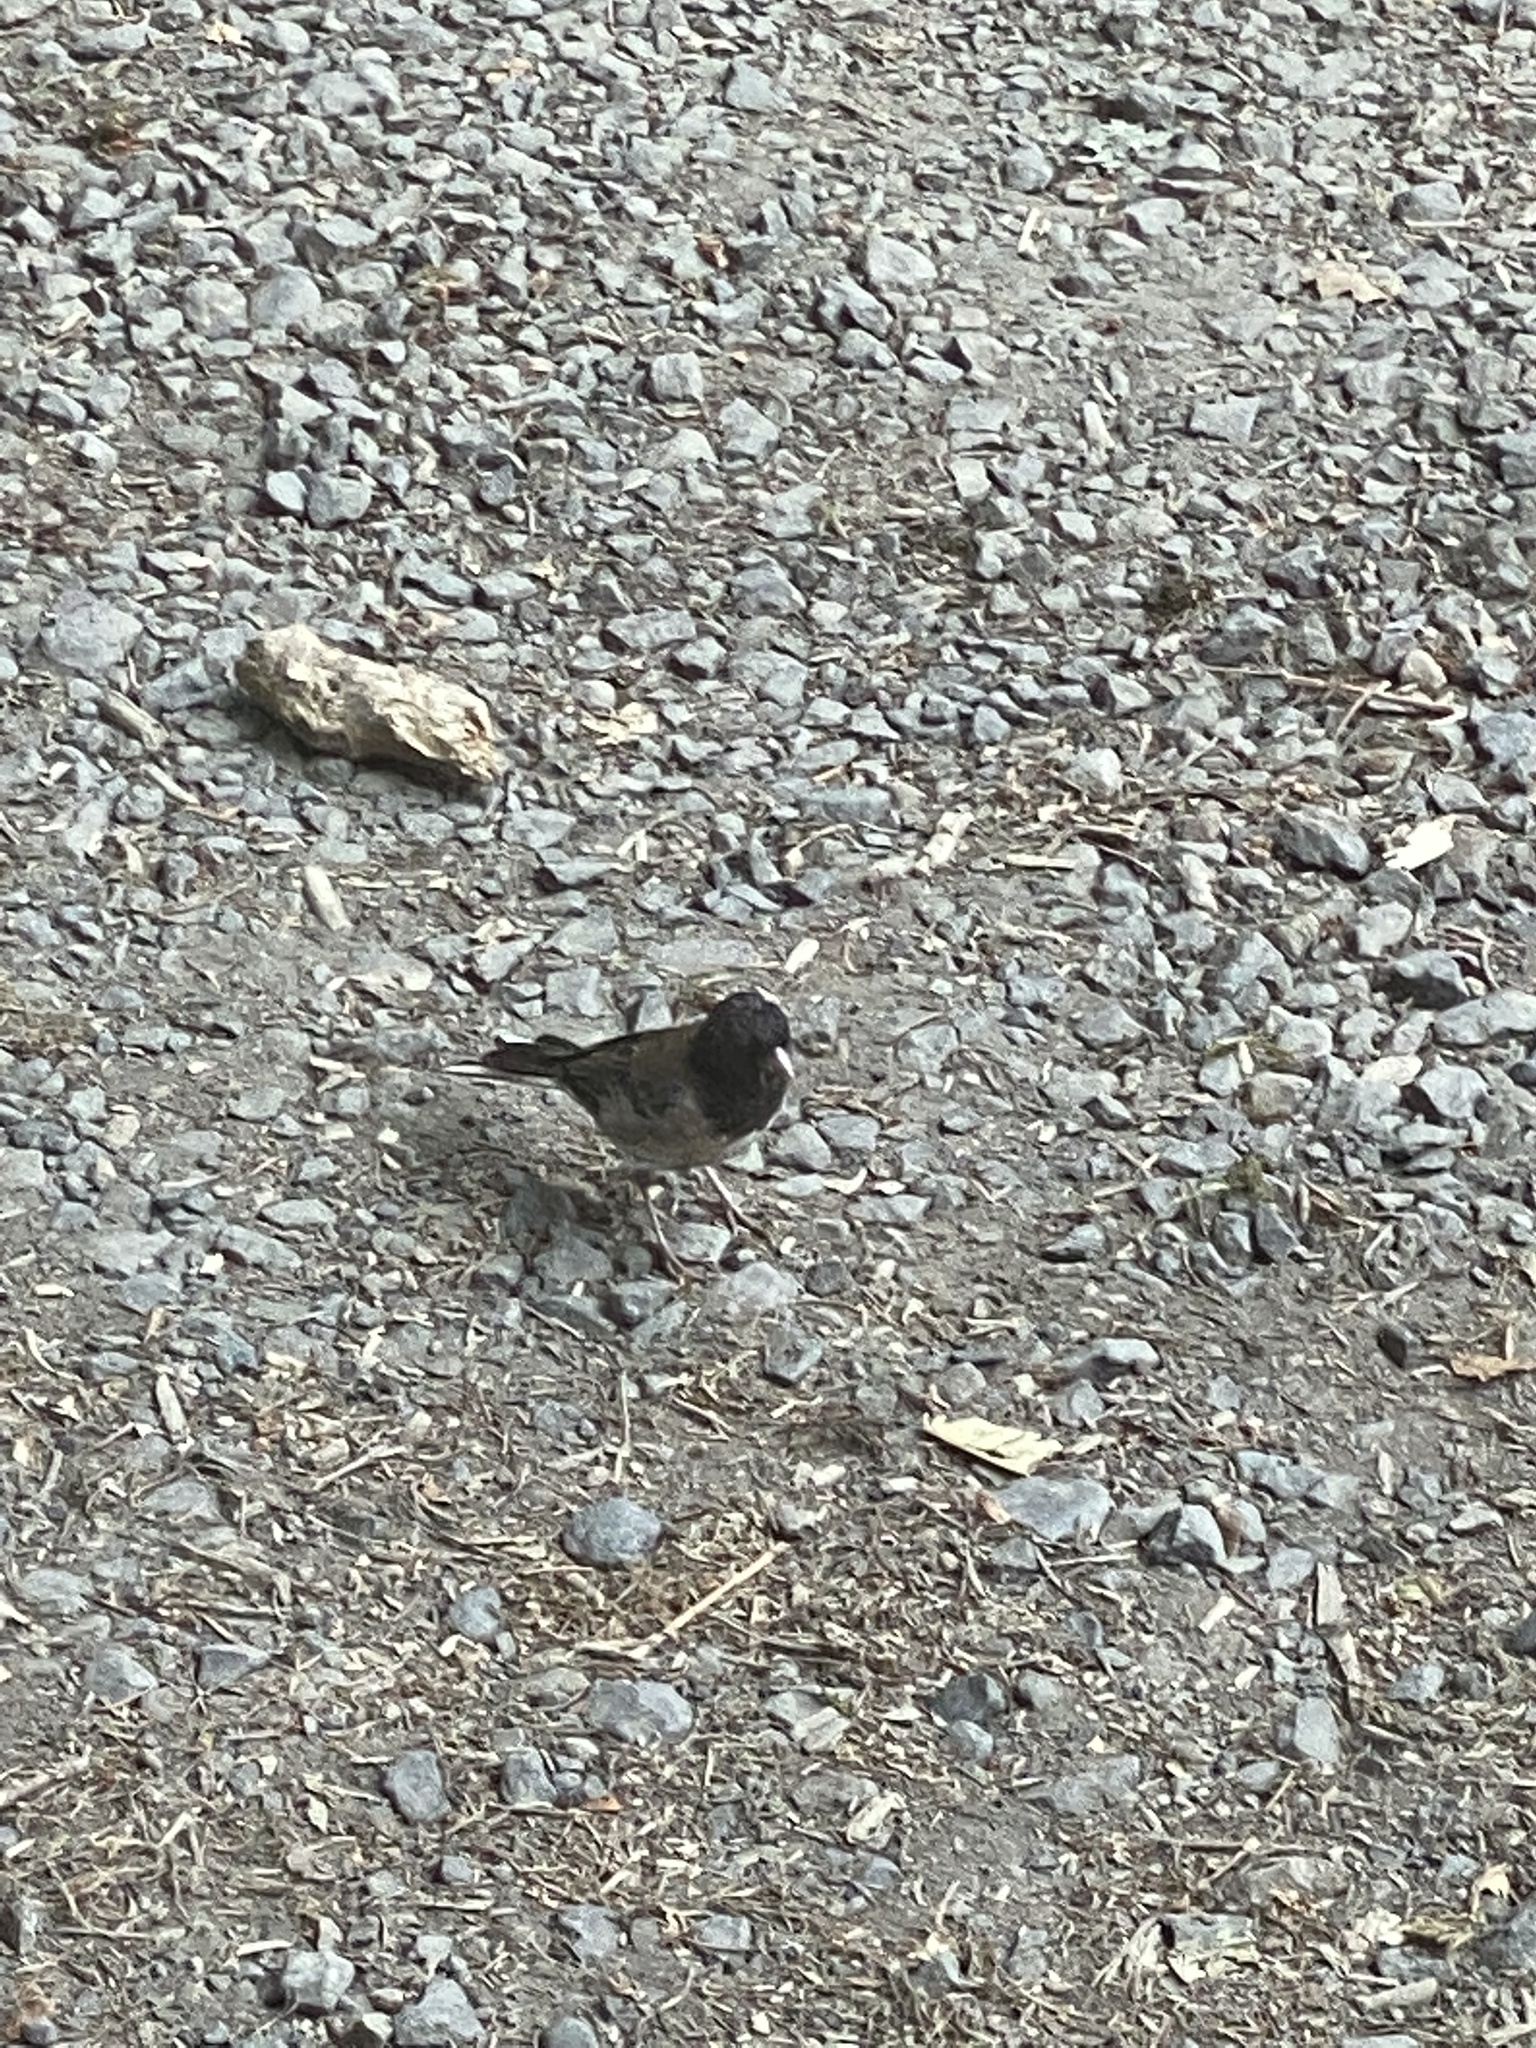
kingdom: Animalia
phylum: Chordata
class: Aves
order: Passeriformes
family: Passerellidae
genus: Junco
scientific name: Junco hyemalis
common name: Dark-eyed junco
